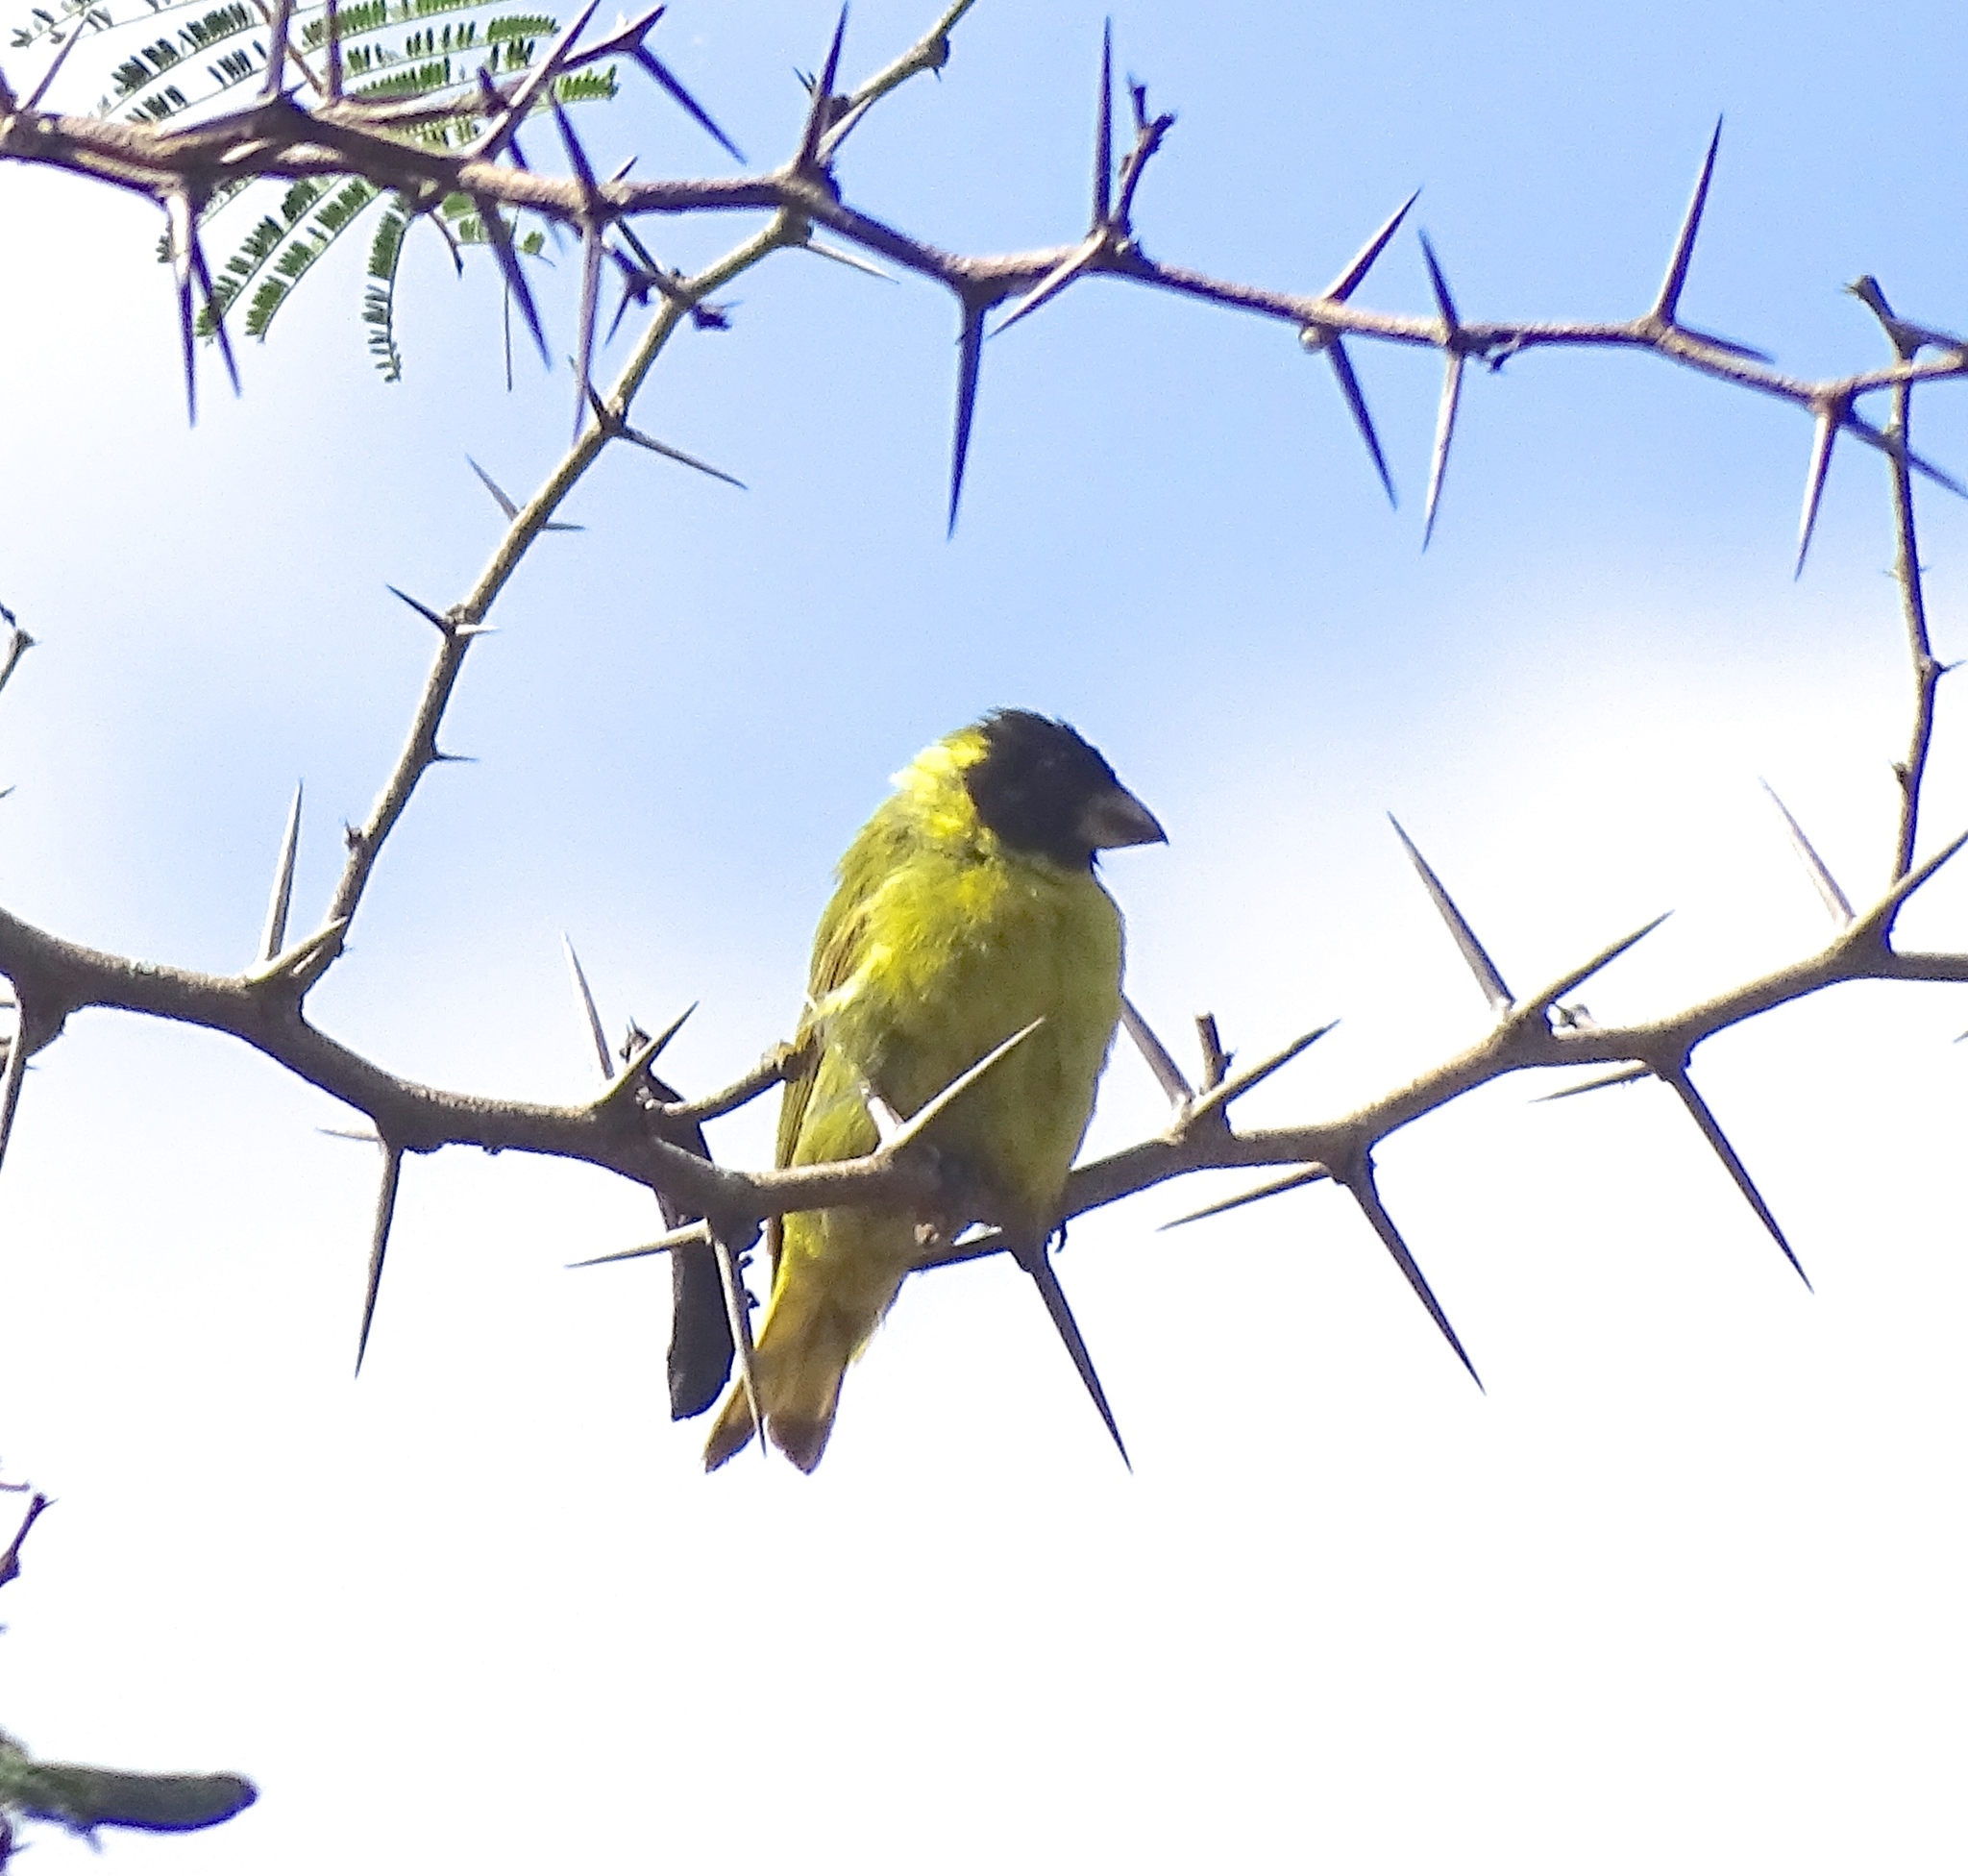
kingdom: Animalia
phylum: Chordata
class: Aves
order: Passeriformes
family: Fringillidae
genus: Spinus
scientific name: Spinus dominicensis
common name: Antillean siskin
